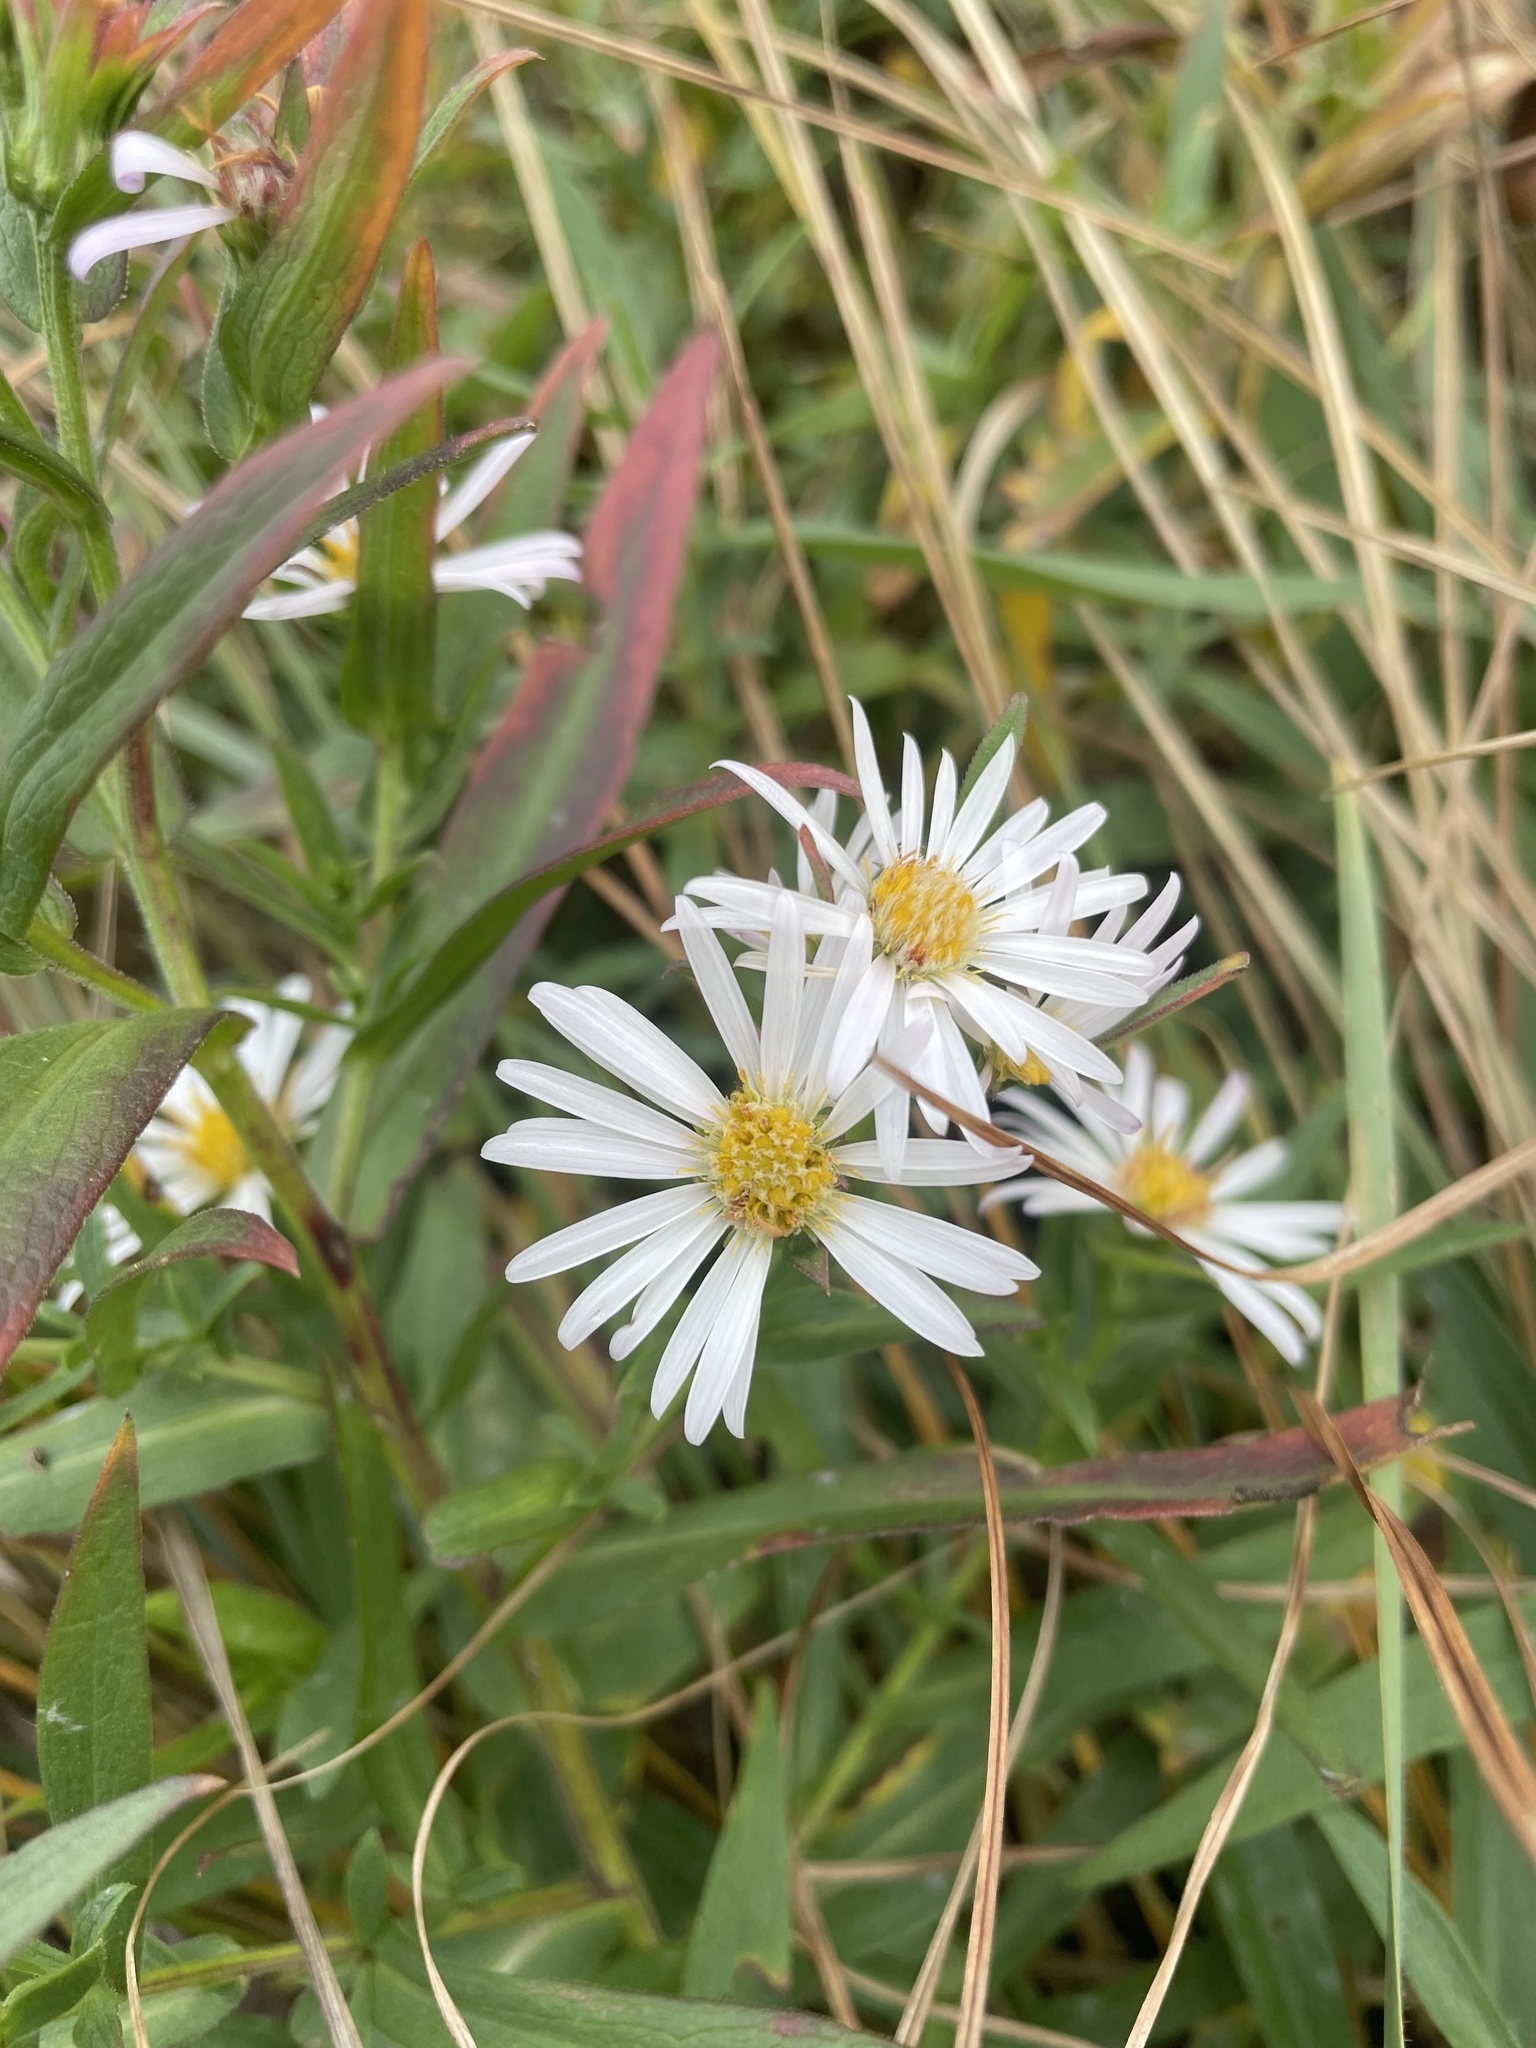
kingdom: Plantae
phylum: Tracheophyta
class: Magnoliopsida
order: Asterales
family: Asteraceae
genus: Symphyotrichum
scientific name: Symphyotrichum lanceolatum
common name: Panicled aster
